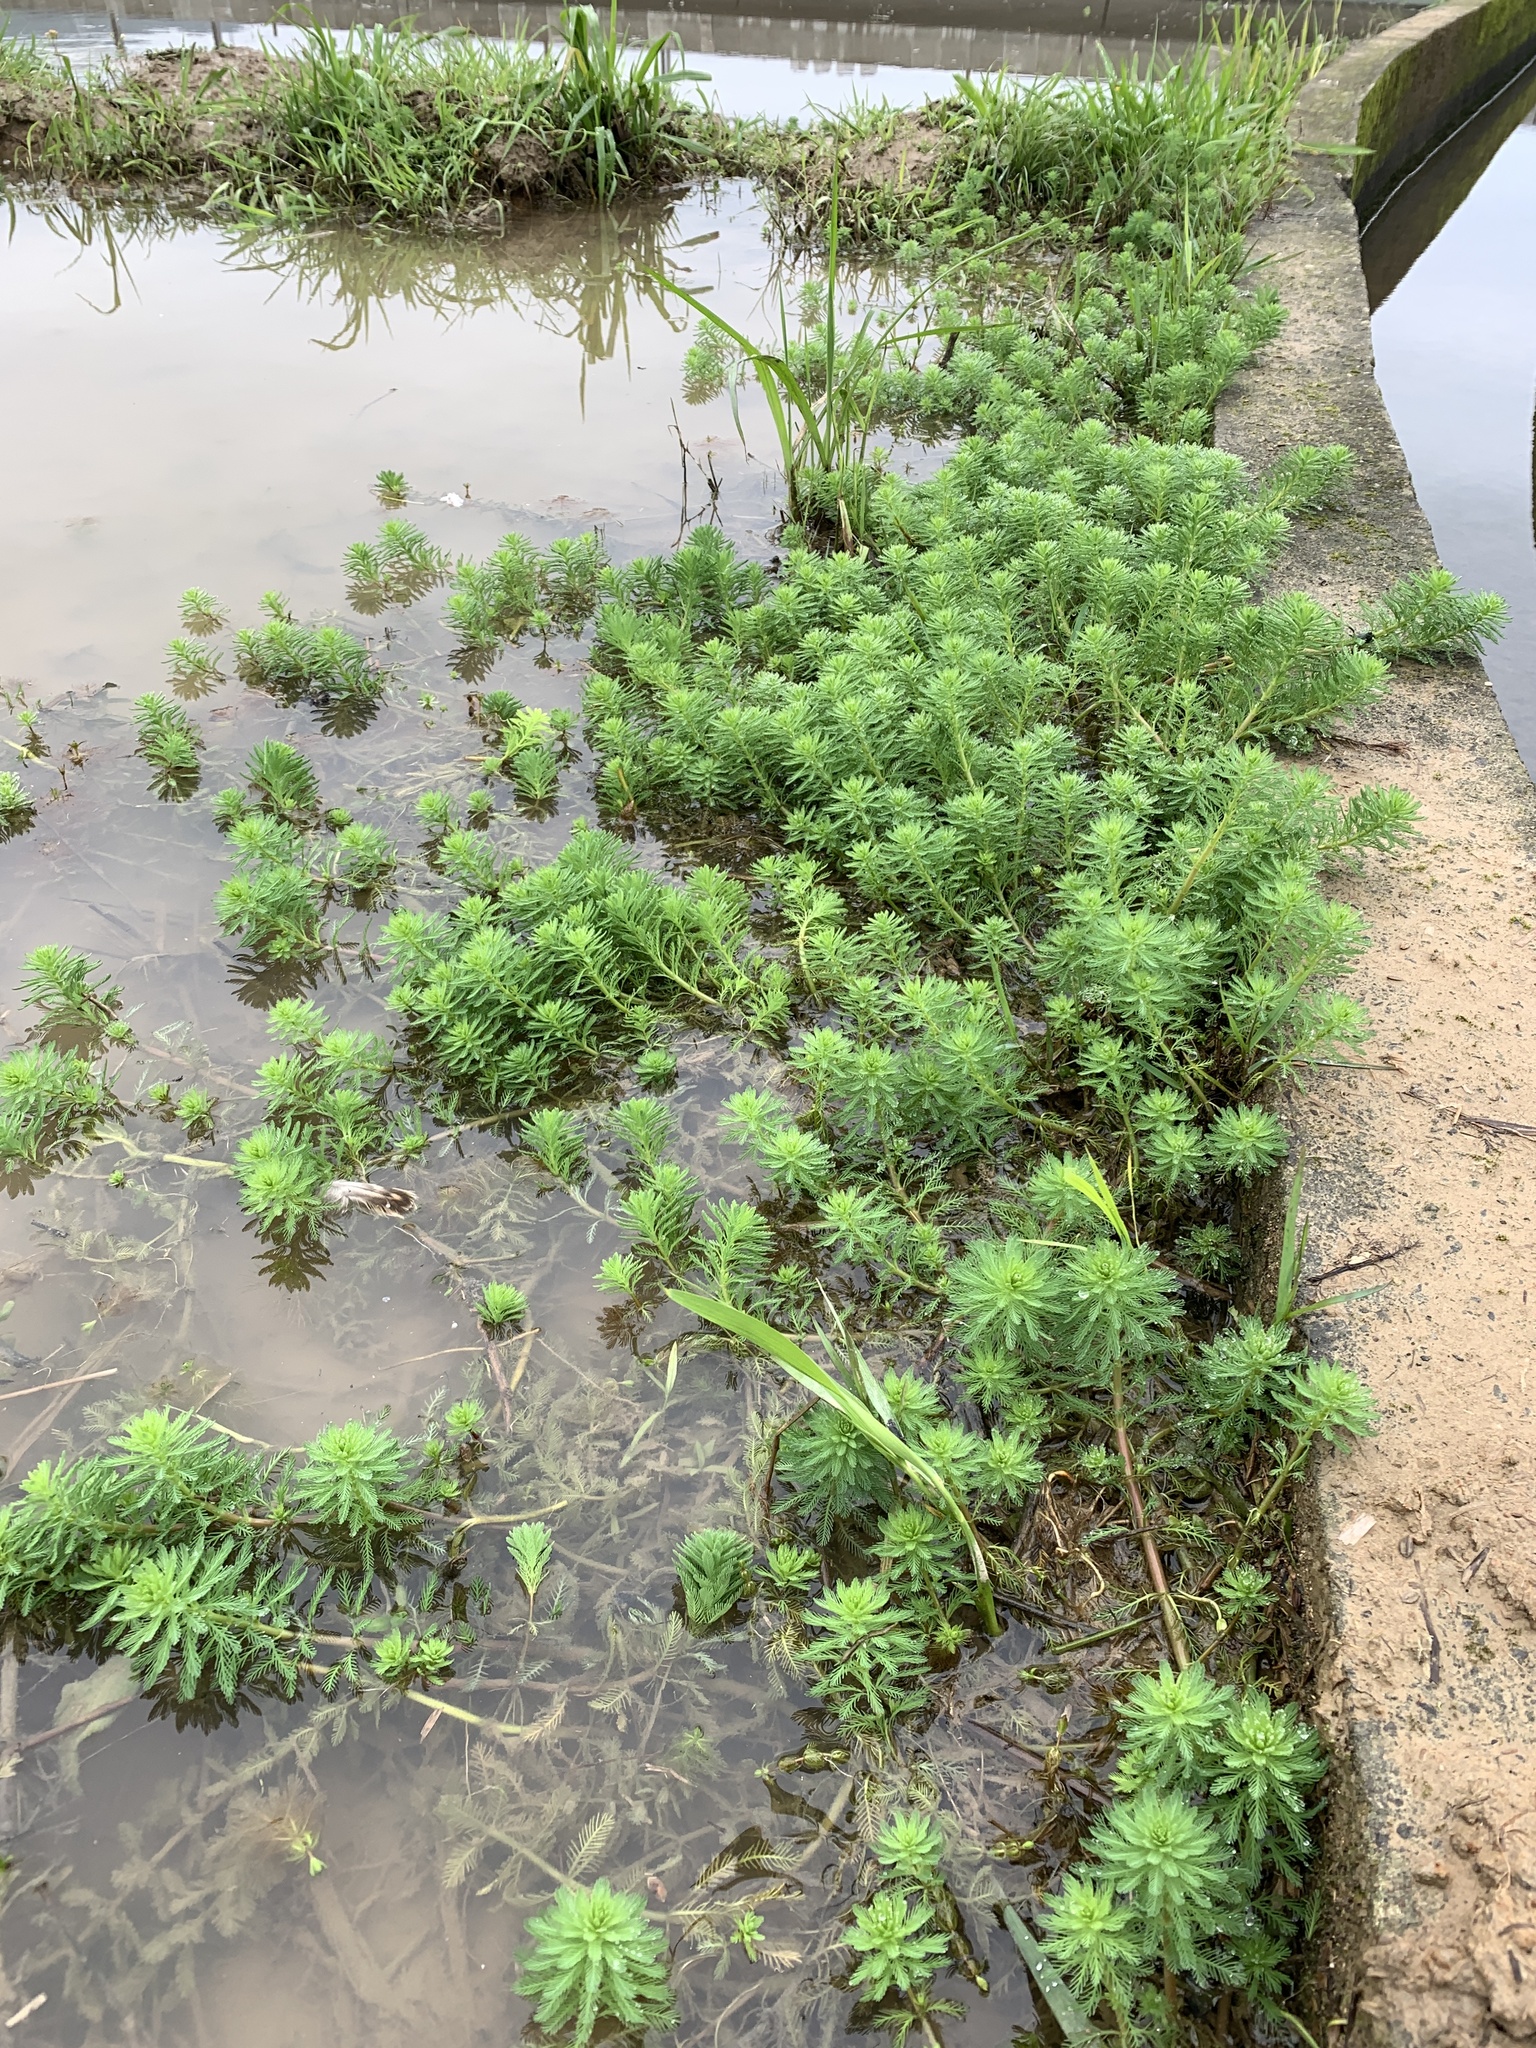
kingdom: Plantae
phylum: Tracheophyta
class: Magnoliopsida
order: Saxifragales
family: Haloragaceae
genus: Myriophyllum
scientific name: Myriophyllum aquaticum
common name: Parrot's feather
